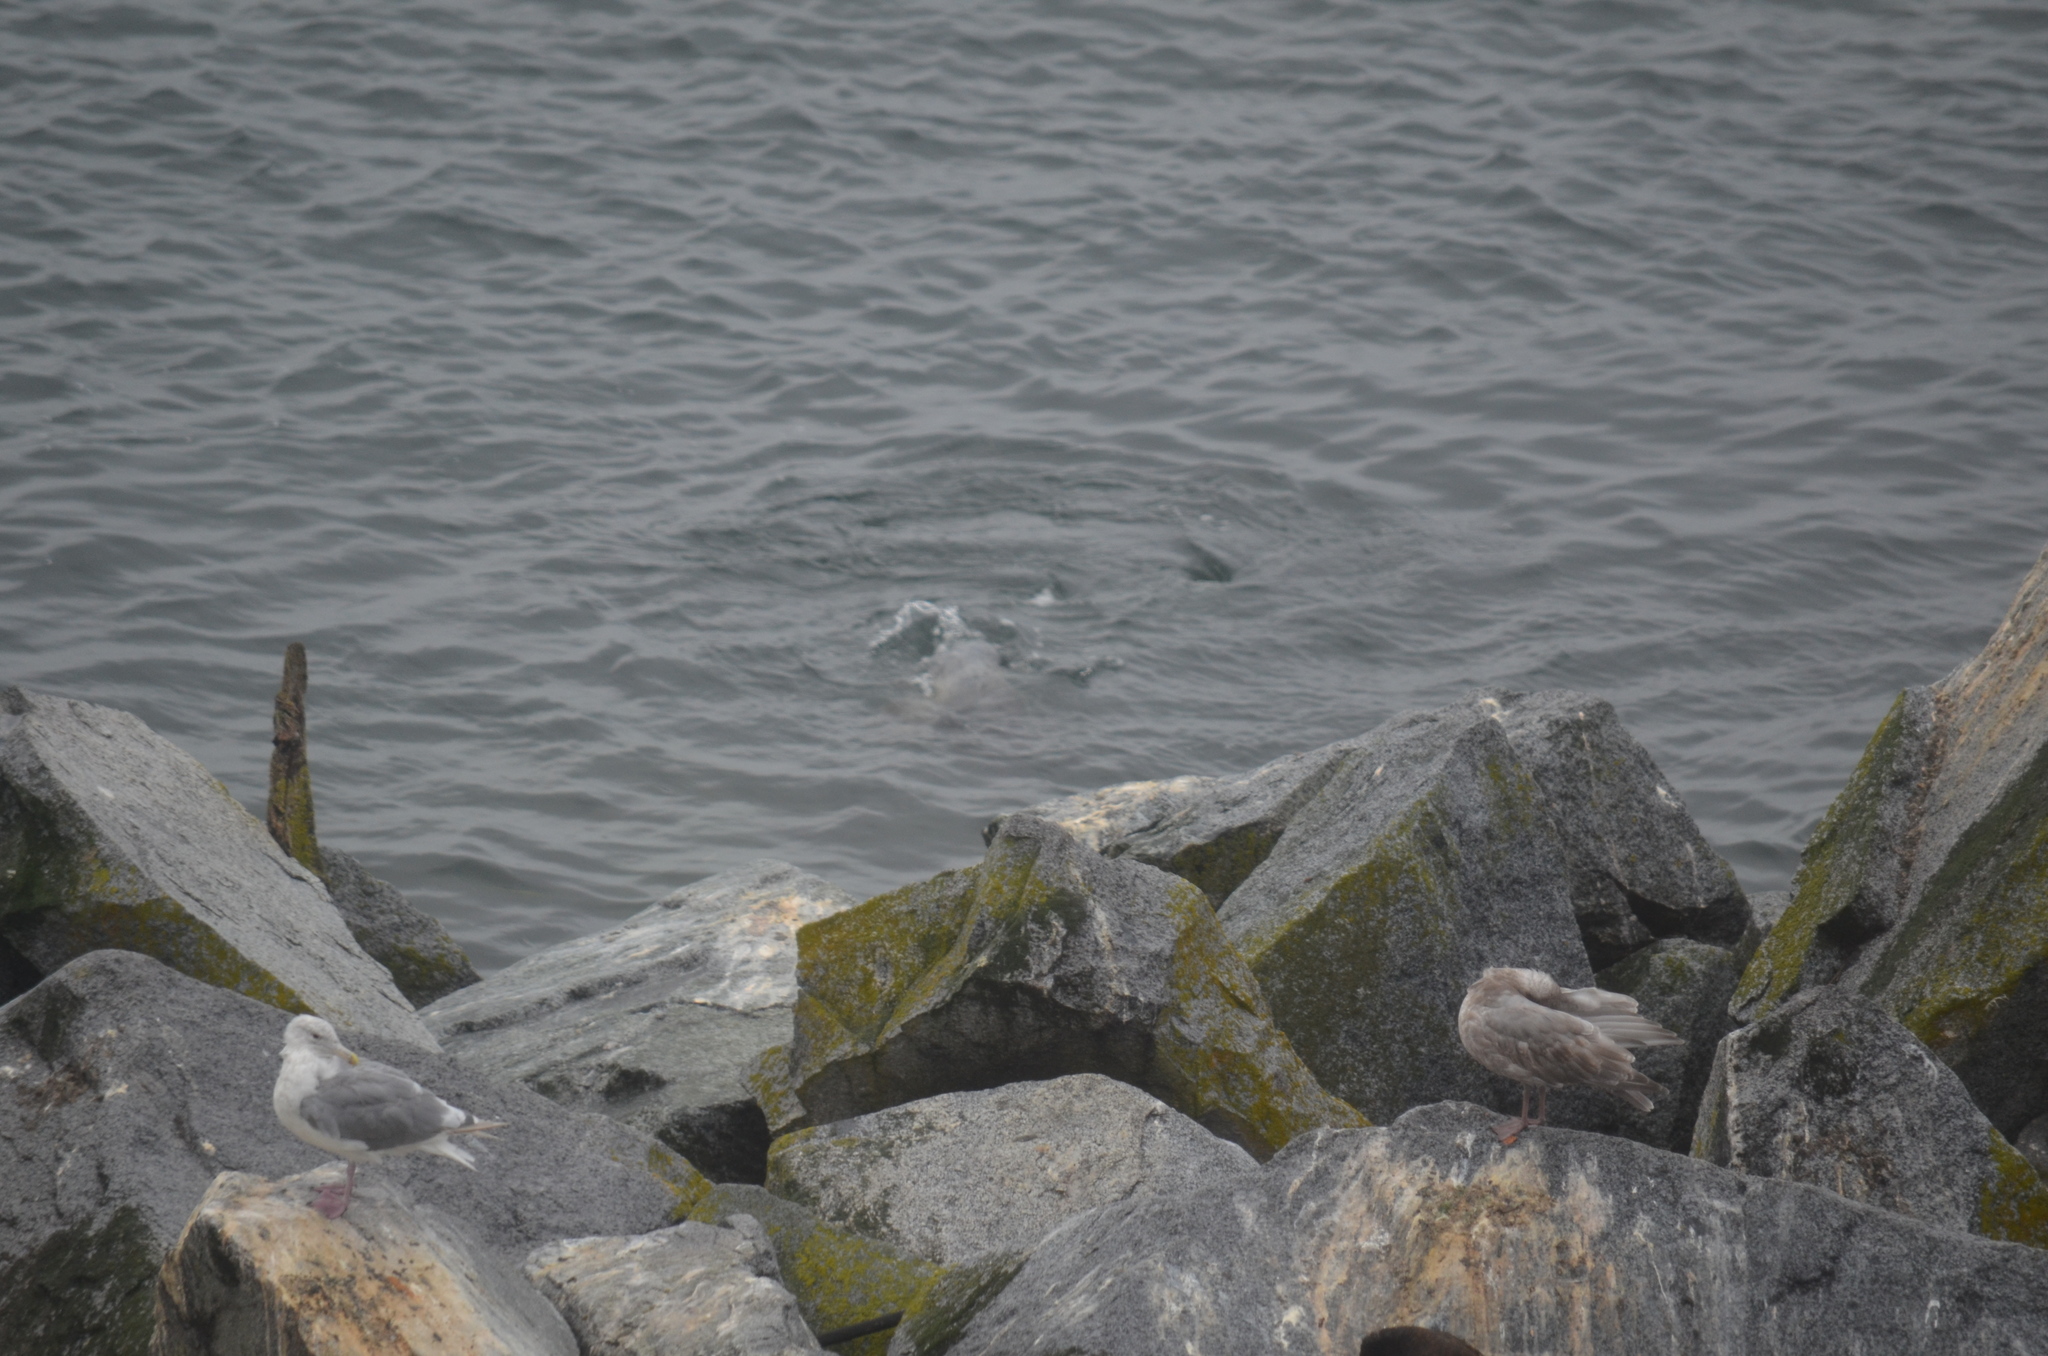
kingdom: Animalia
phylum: Chordata
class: Mammalia
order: Carnivora
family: Phocidae
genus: Phoca
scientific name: Phoca vitulina
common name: Harbor seal
